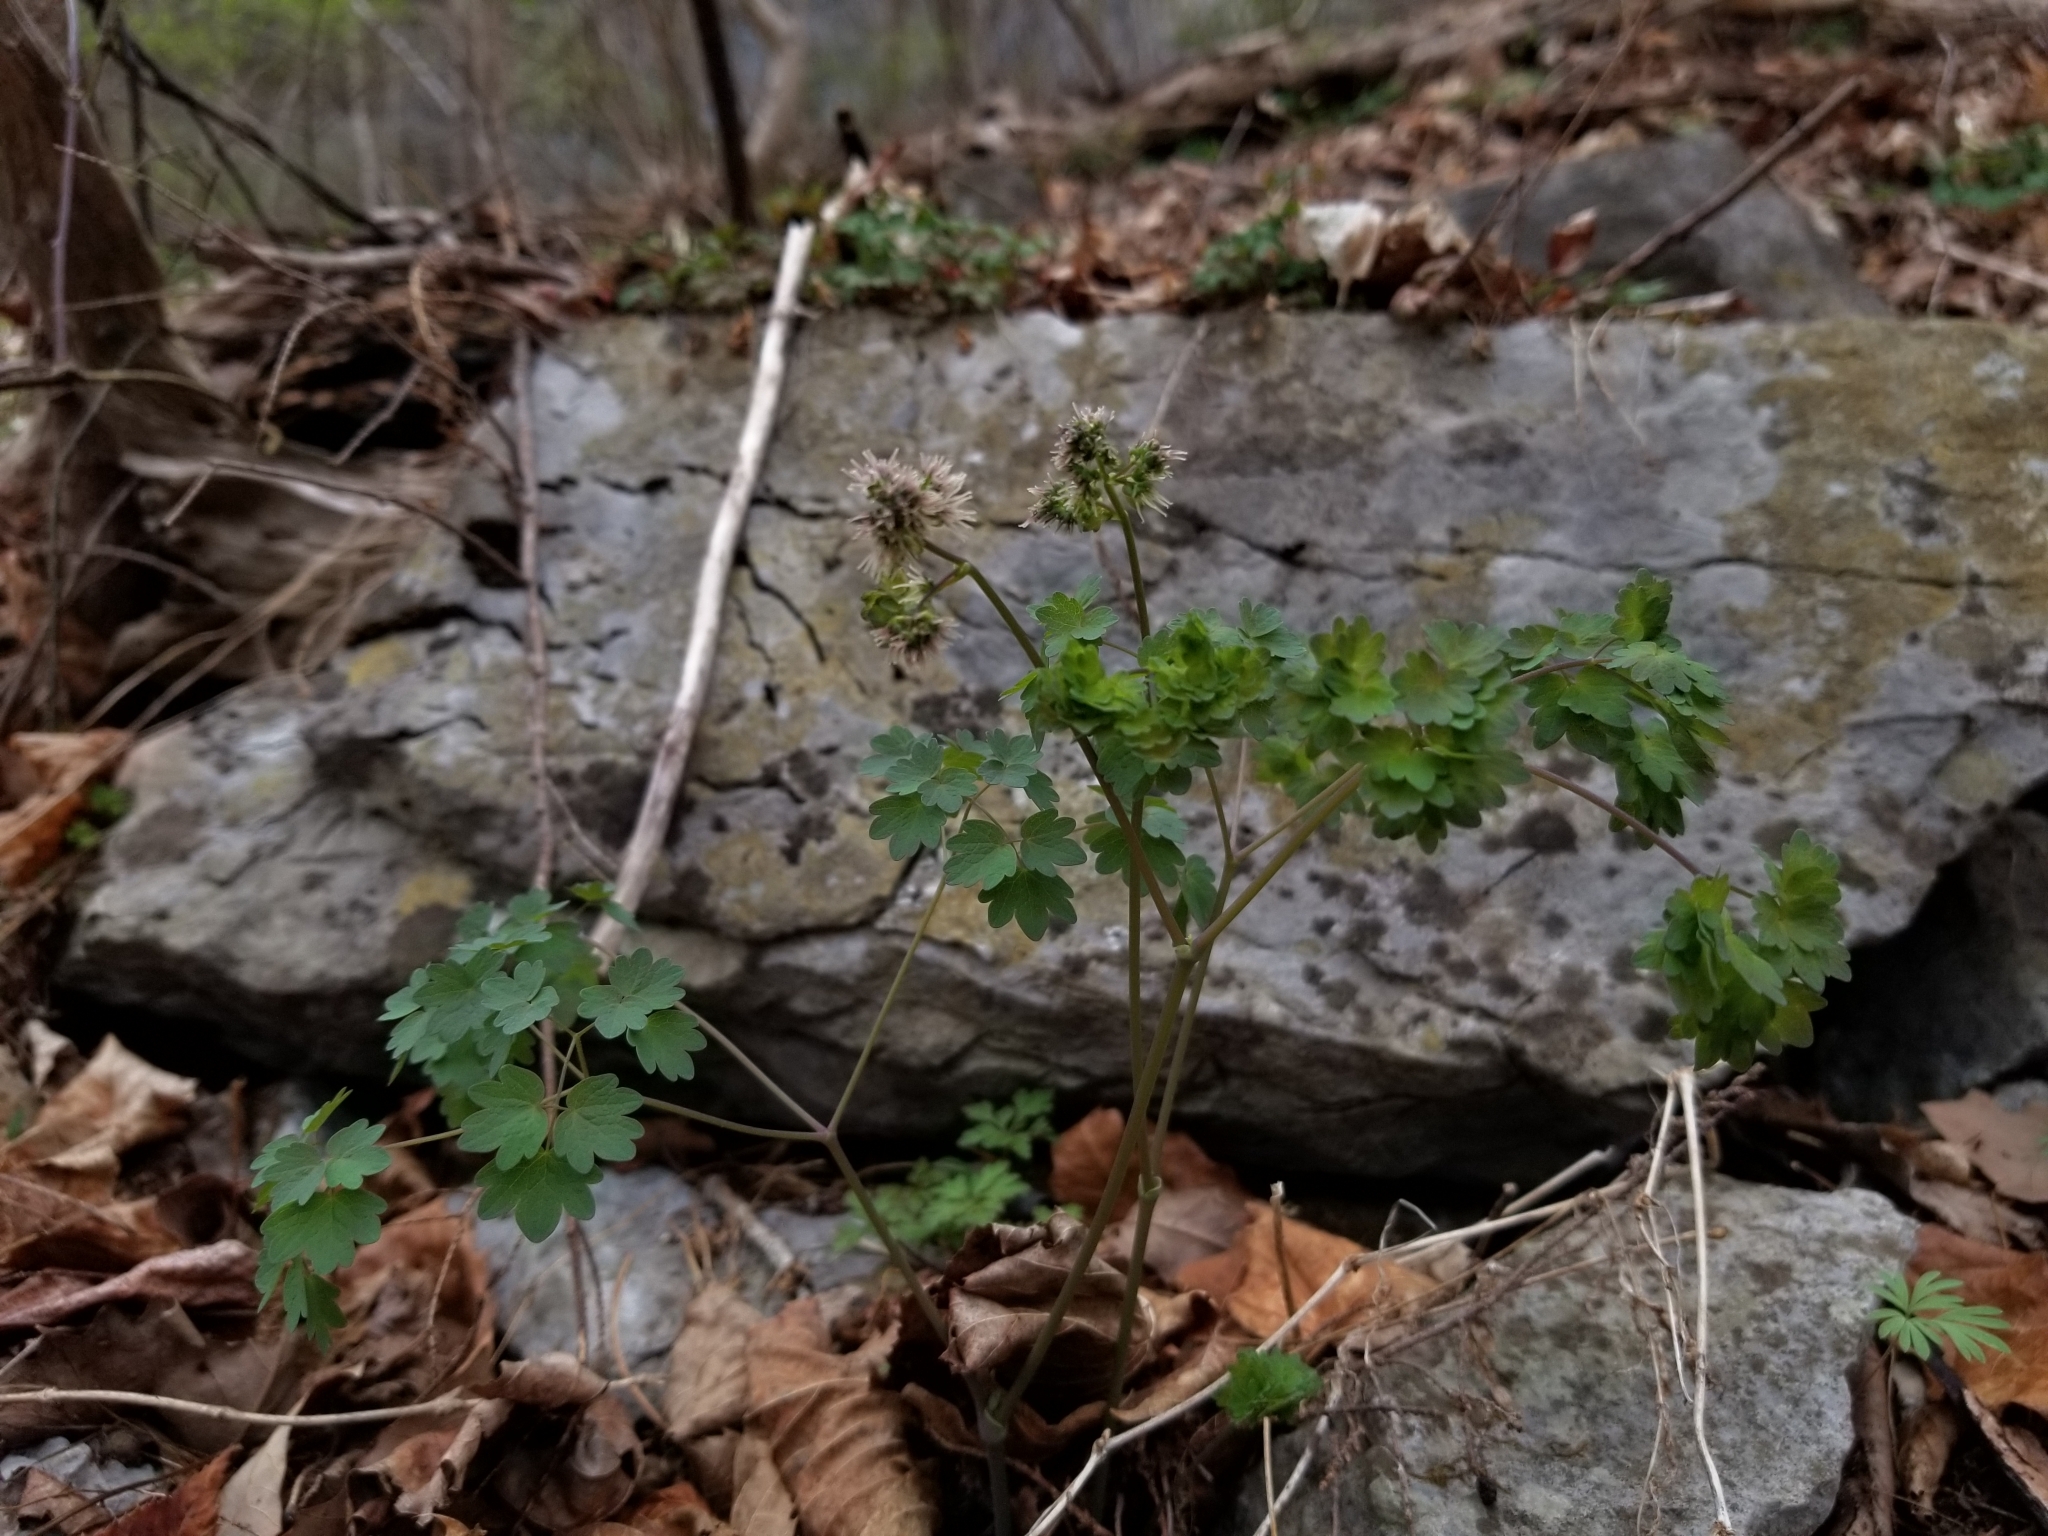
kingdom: Plantae
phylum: Tracheophyta
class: Magnoliopsida
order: Ranunculales
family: Ranunculaceae
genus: Thalictrum
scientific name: Thalictrum dioicum
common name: Early meadow-rue
